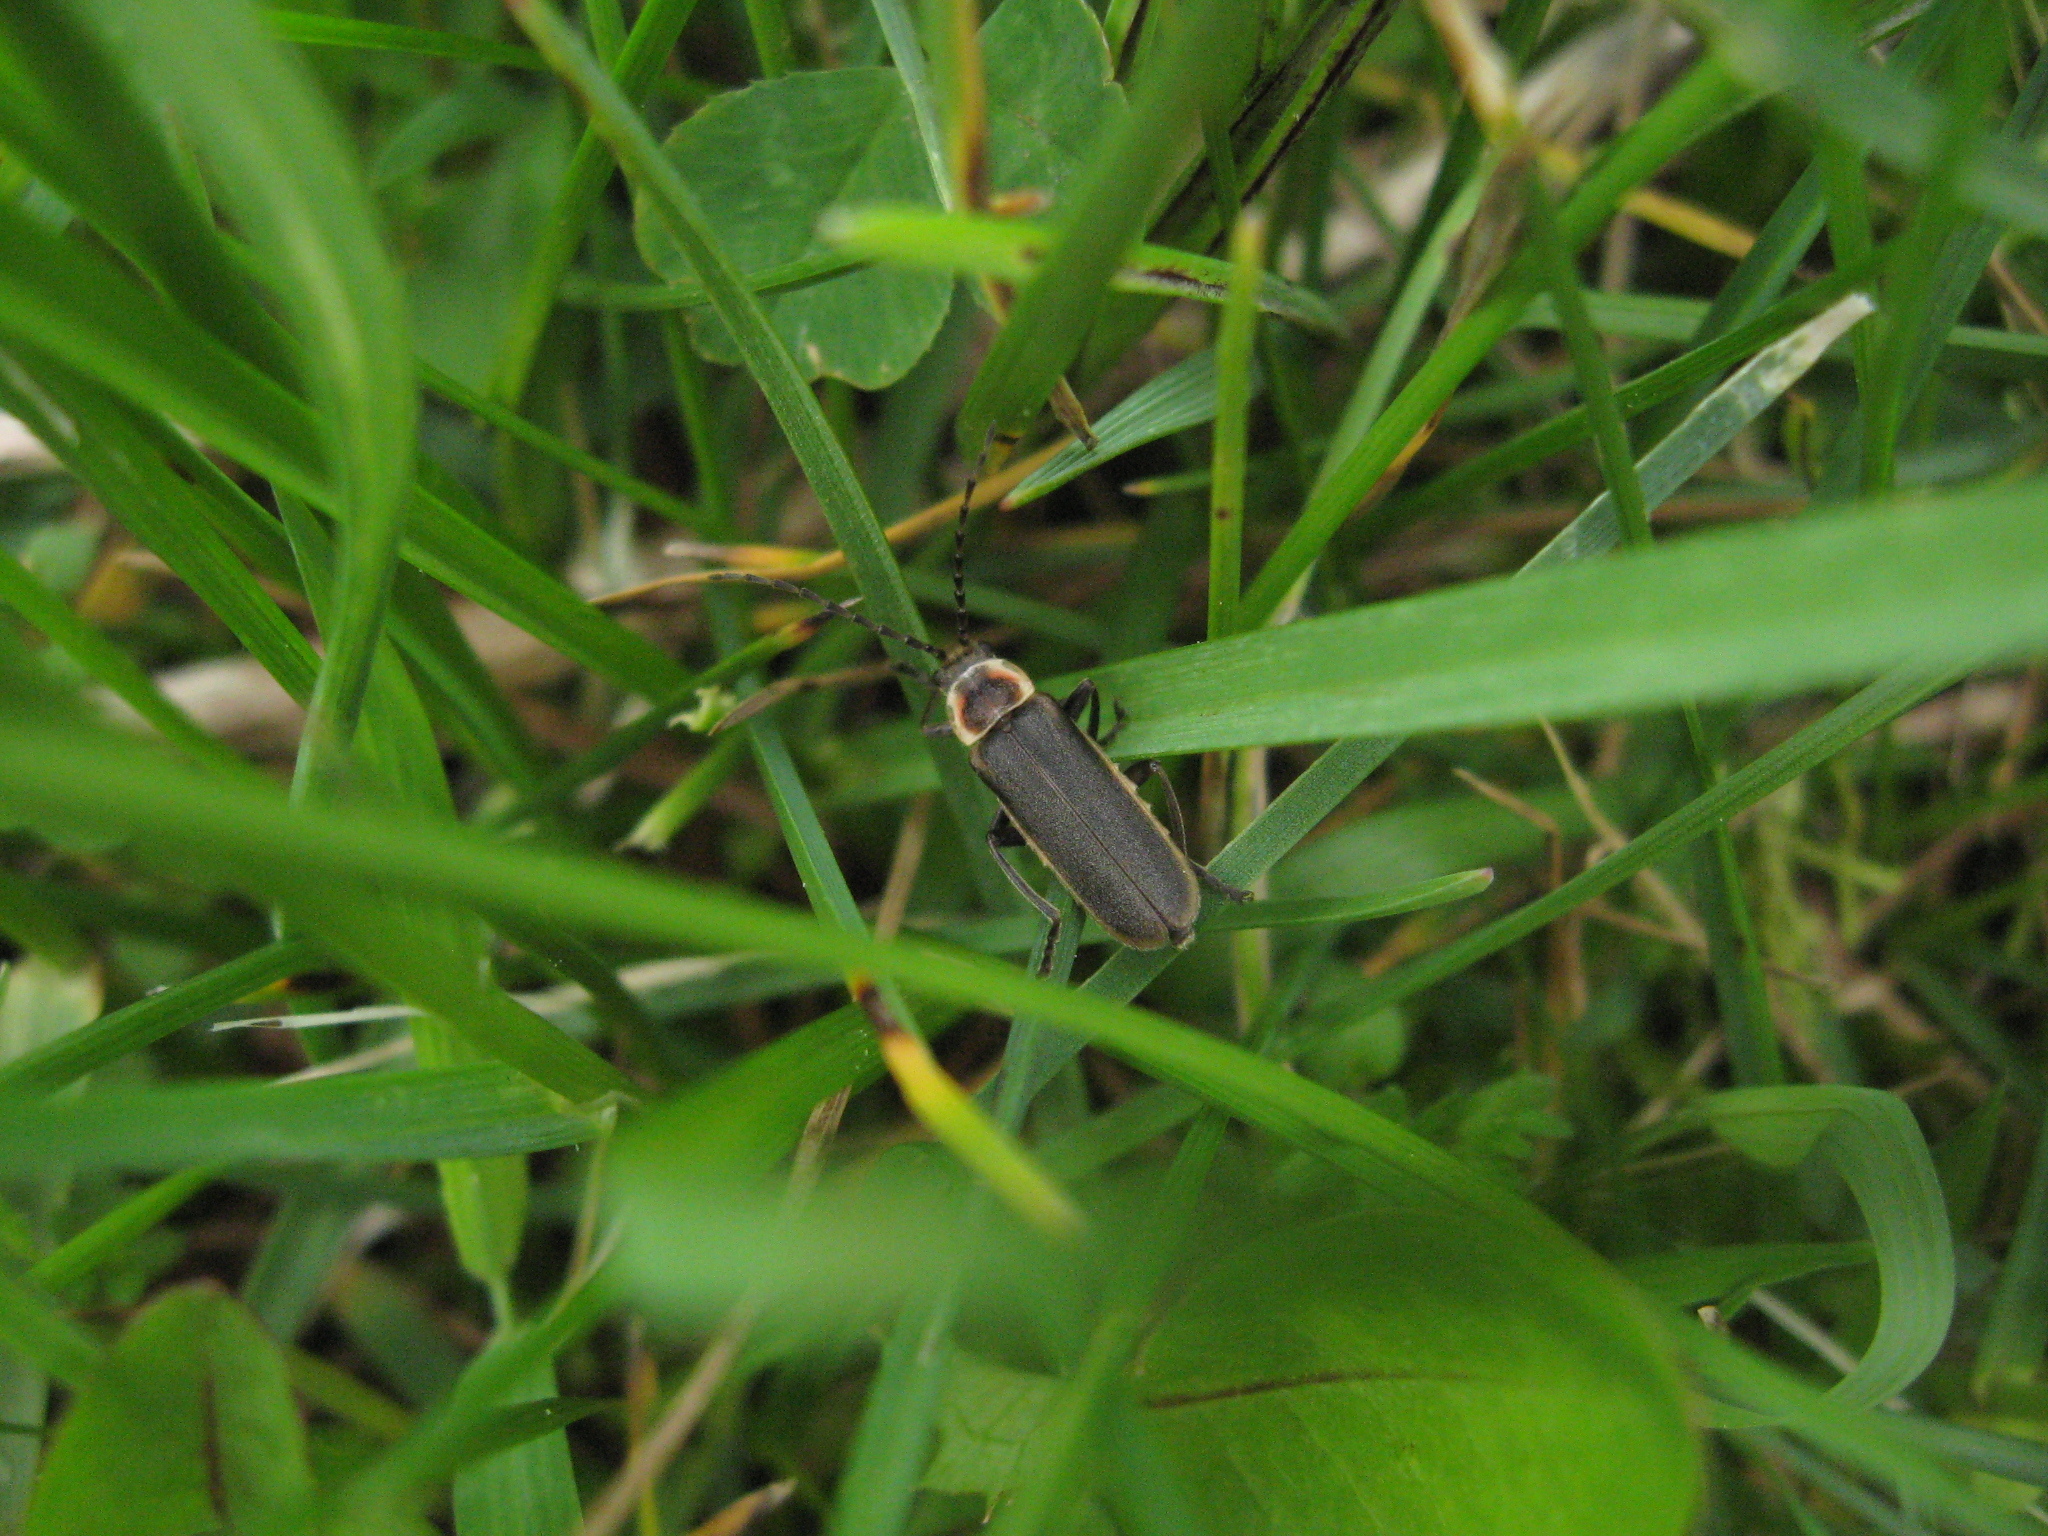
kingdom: Animalia
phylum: Arthropoda
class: Insecta
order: Coleoptera
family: Cantharidae
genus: Atalantycha
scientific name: Atalantycha dentigera
